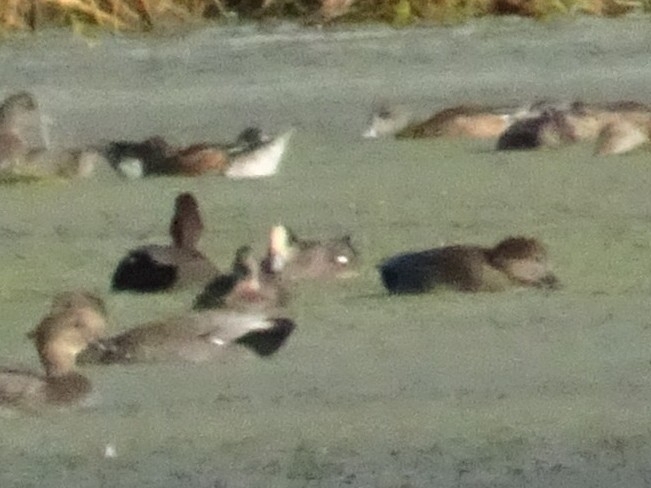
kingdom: Animalia
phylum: Chordata
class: Aves
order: Anseriformes
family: Anatidae
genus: Mareca
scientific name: Mareca americana
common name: American wigeon
